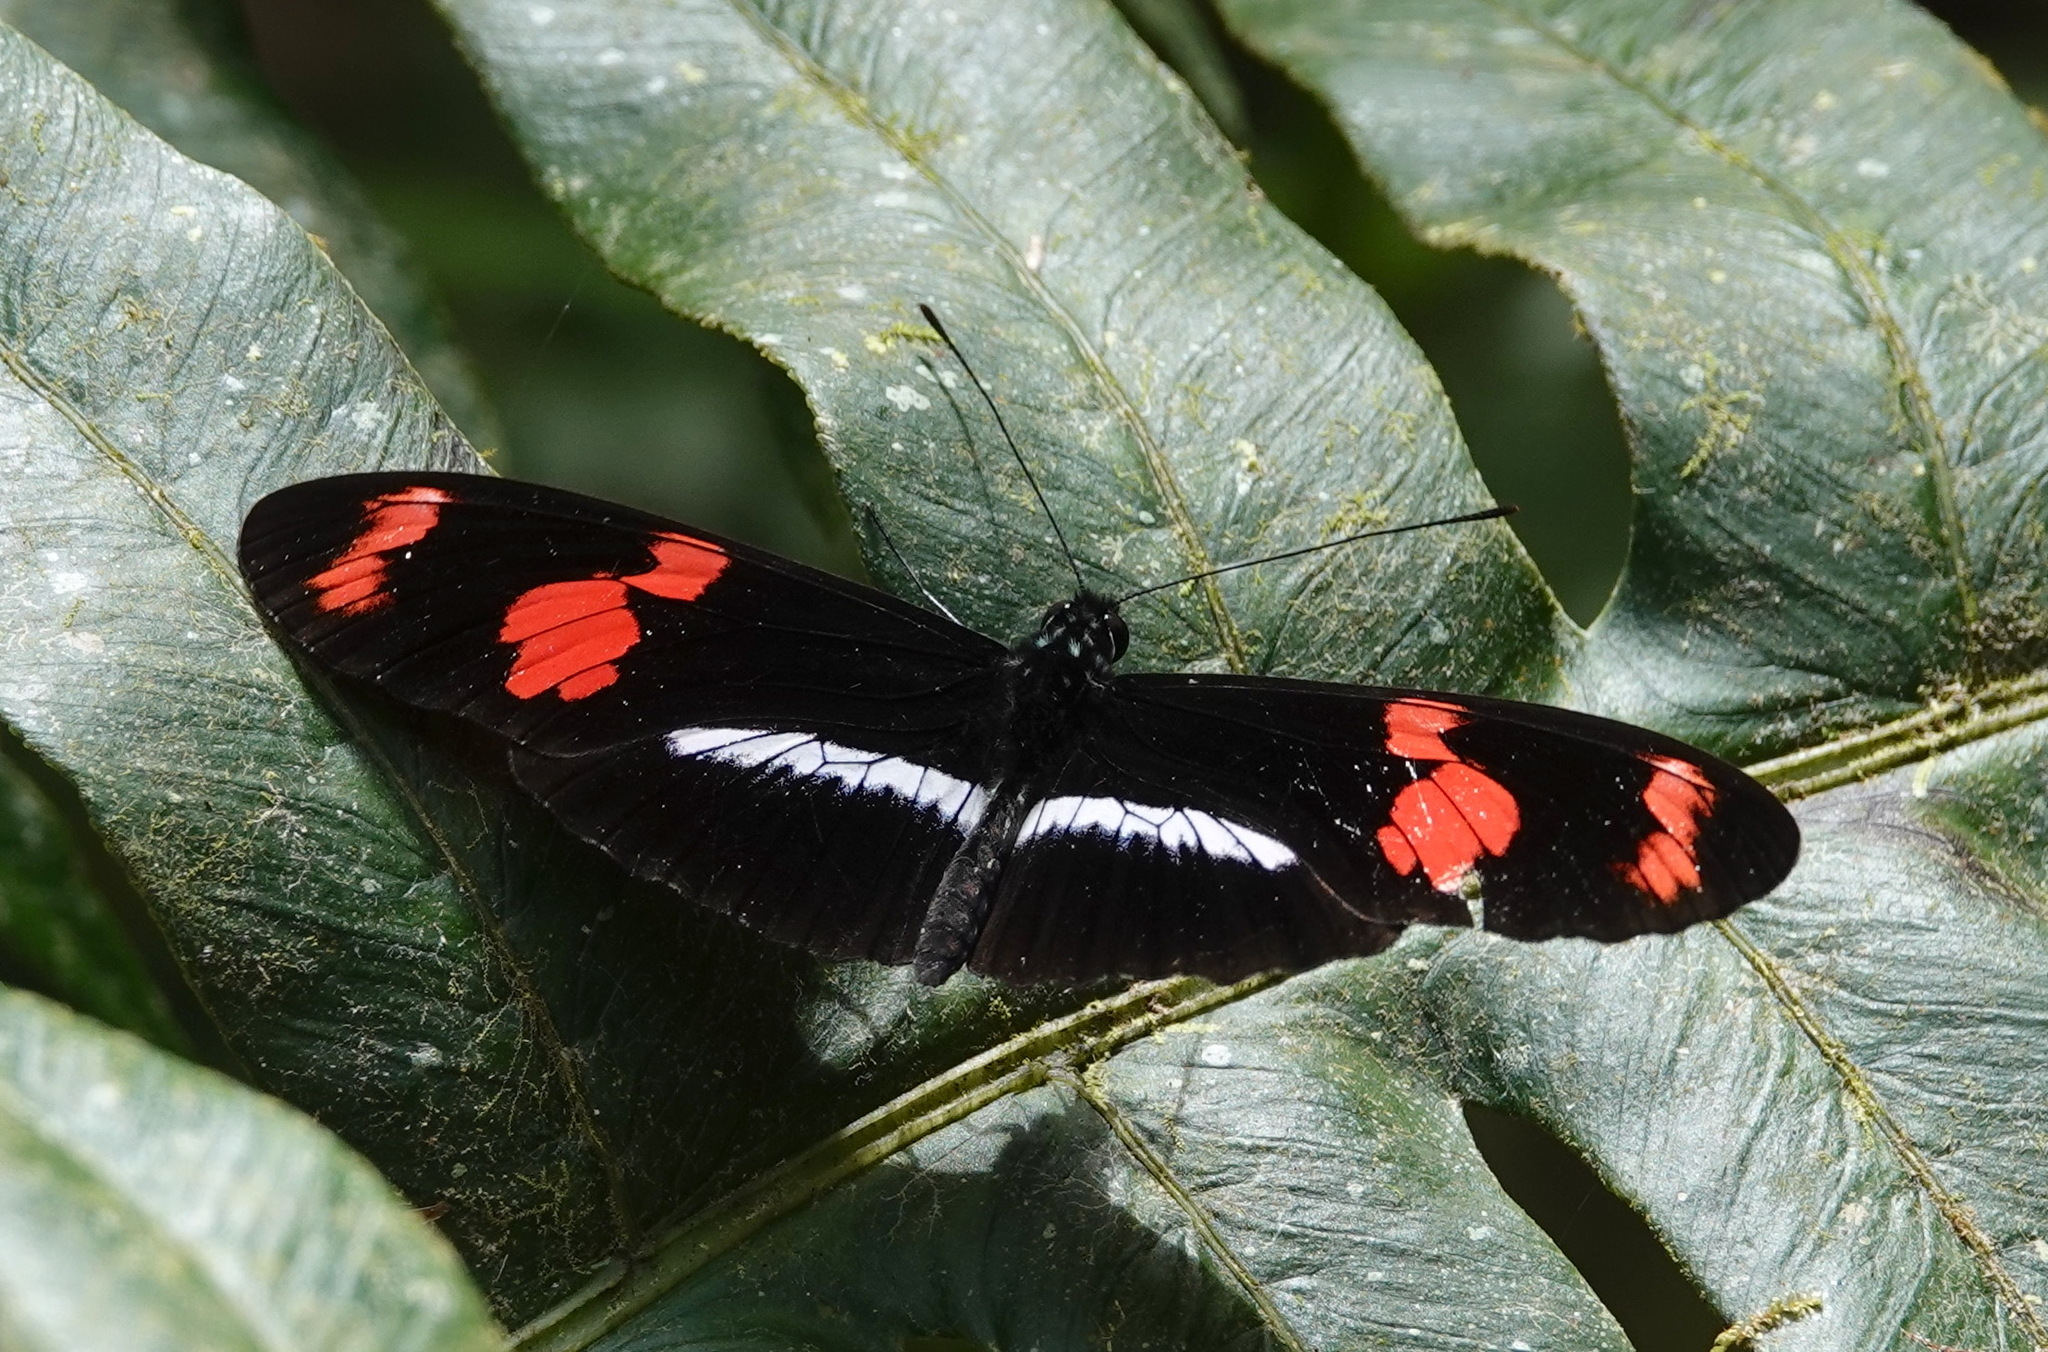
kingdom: Animalia
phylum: Arthropoda
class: Insecta
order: Lepidoptera
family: Nymphalidae
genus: Heliconius
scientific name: Heliconius telesiphe
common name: Telesiphe longwing
